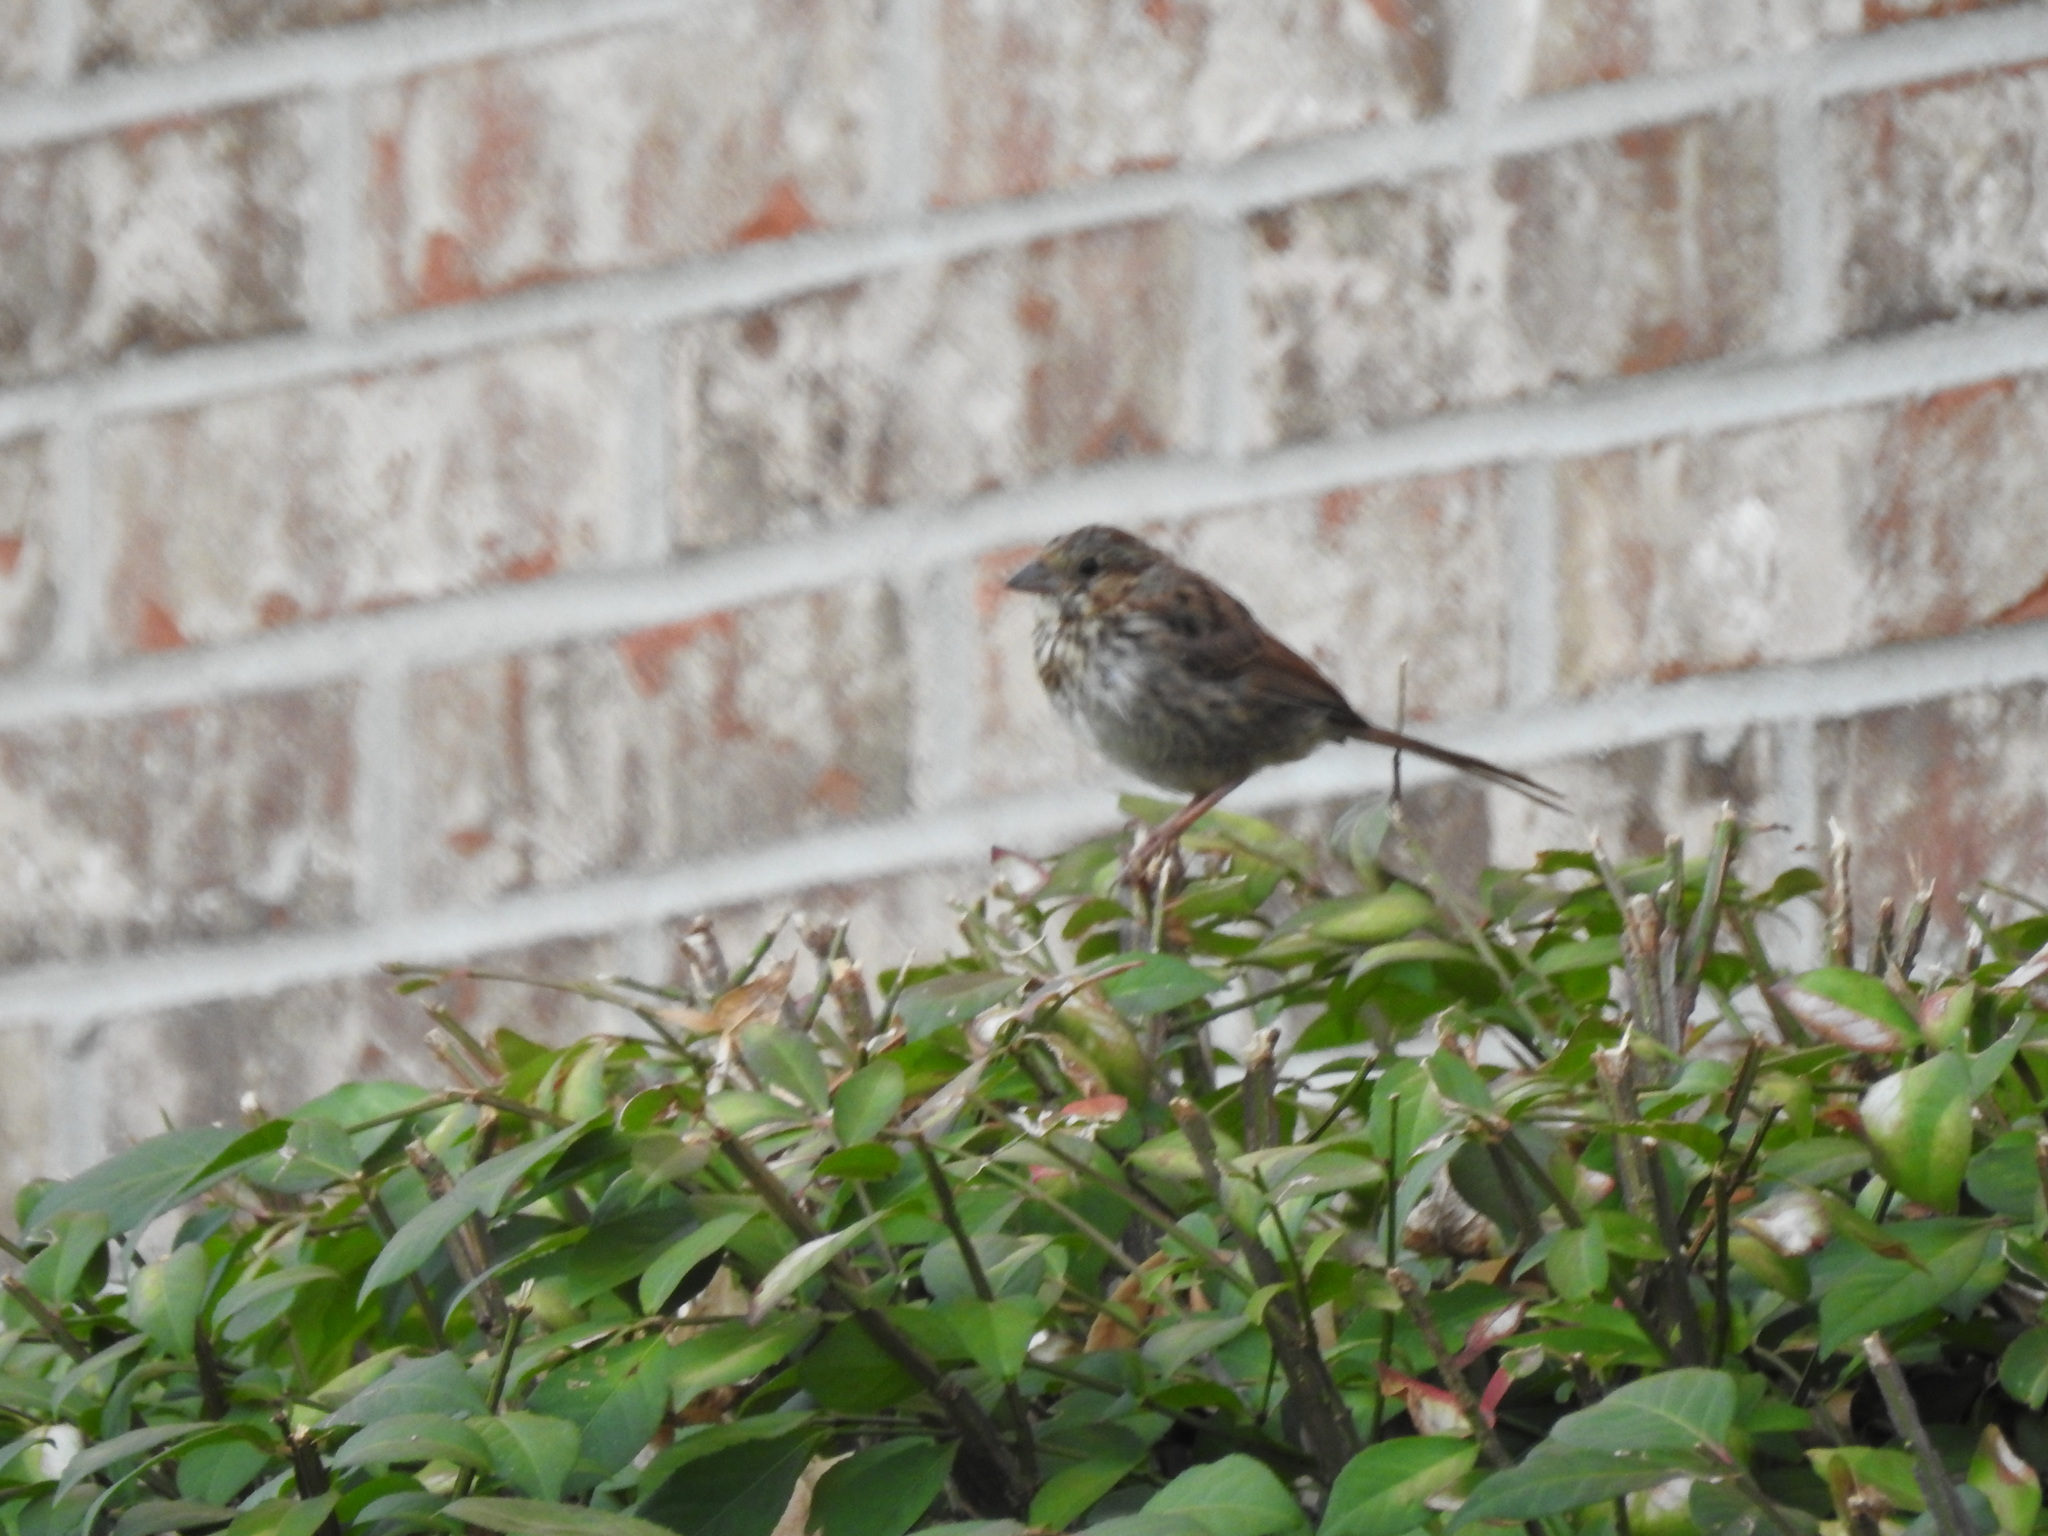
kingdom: Animalia
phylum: Chordata
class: Aves
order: Passeriformes
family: Passerellidae
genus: Melospiza
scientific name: Melospiza melodia
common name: Song sparrow
